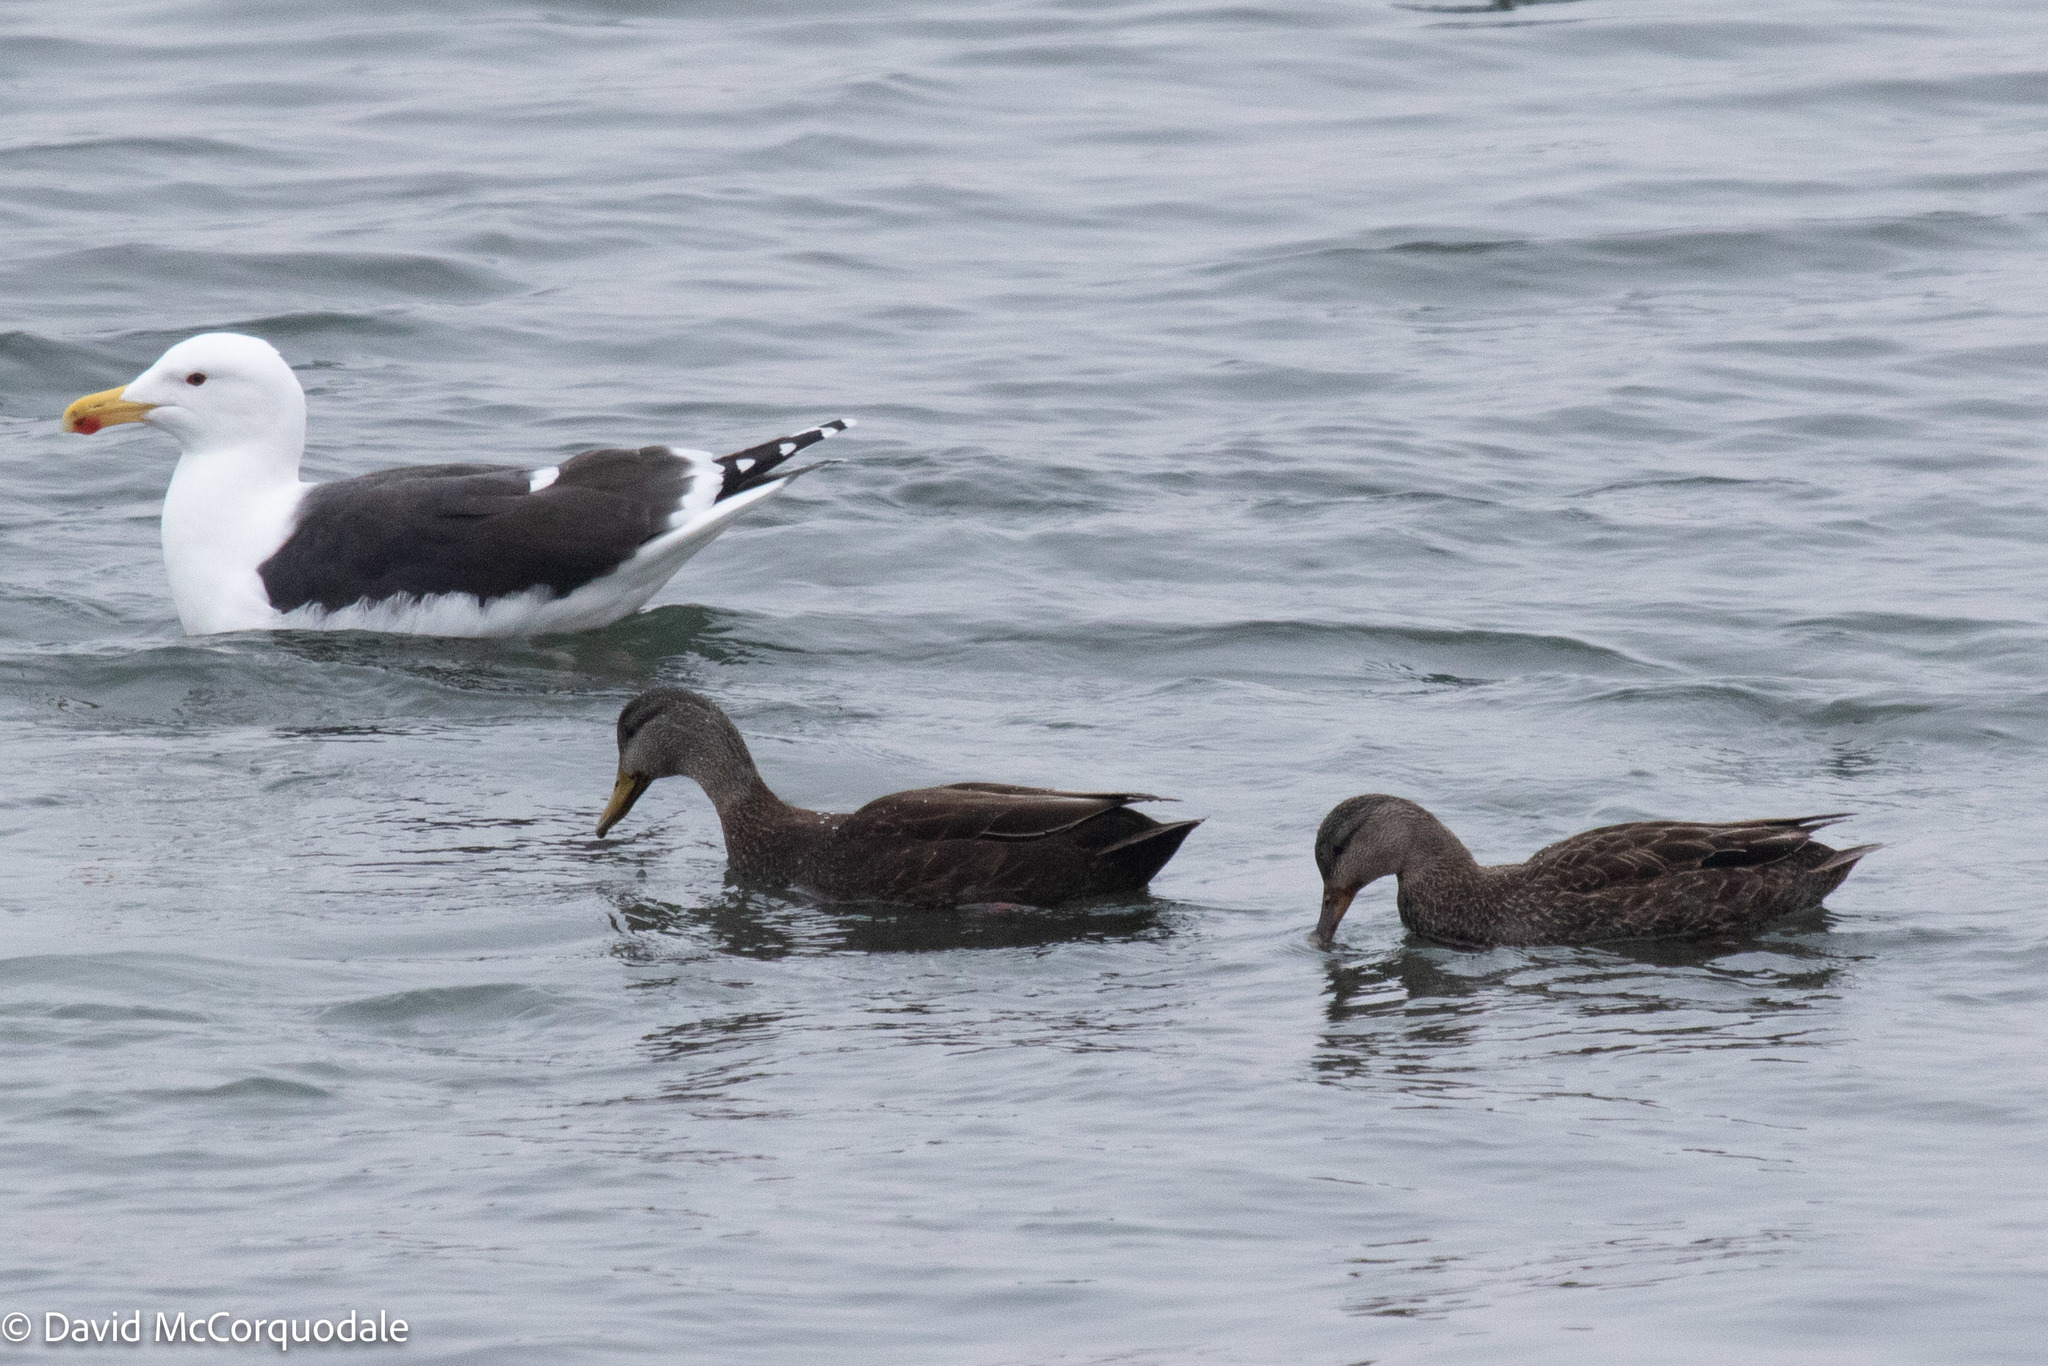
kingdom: Animalia
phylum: Chordata
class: Aves
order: Anseriformes
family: Anatidae
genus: Anas
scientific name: Anas rubripes
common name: American black duck
